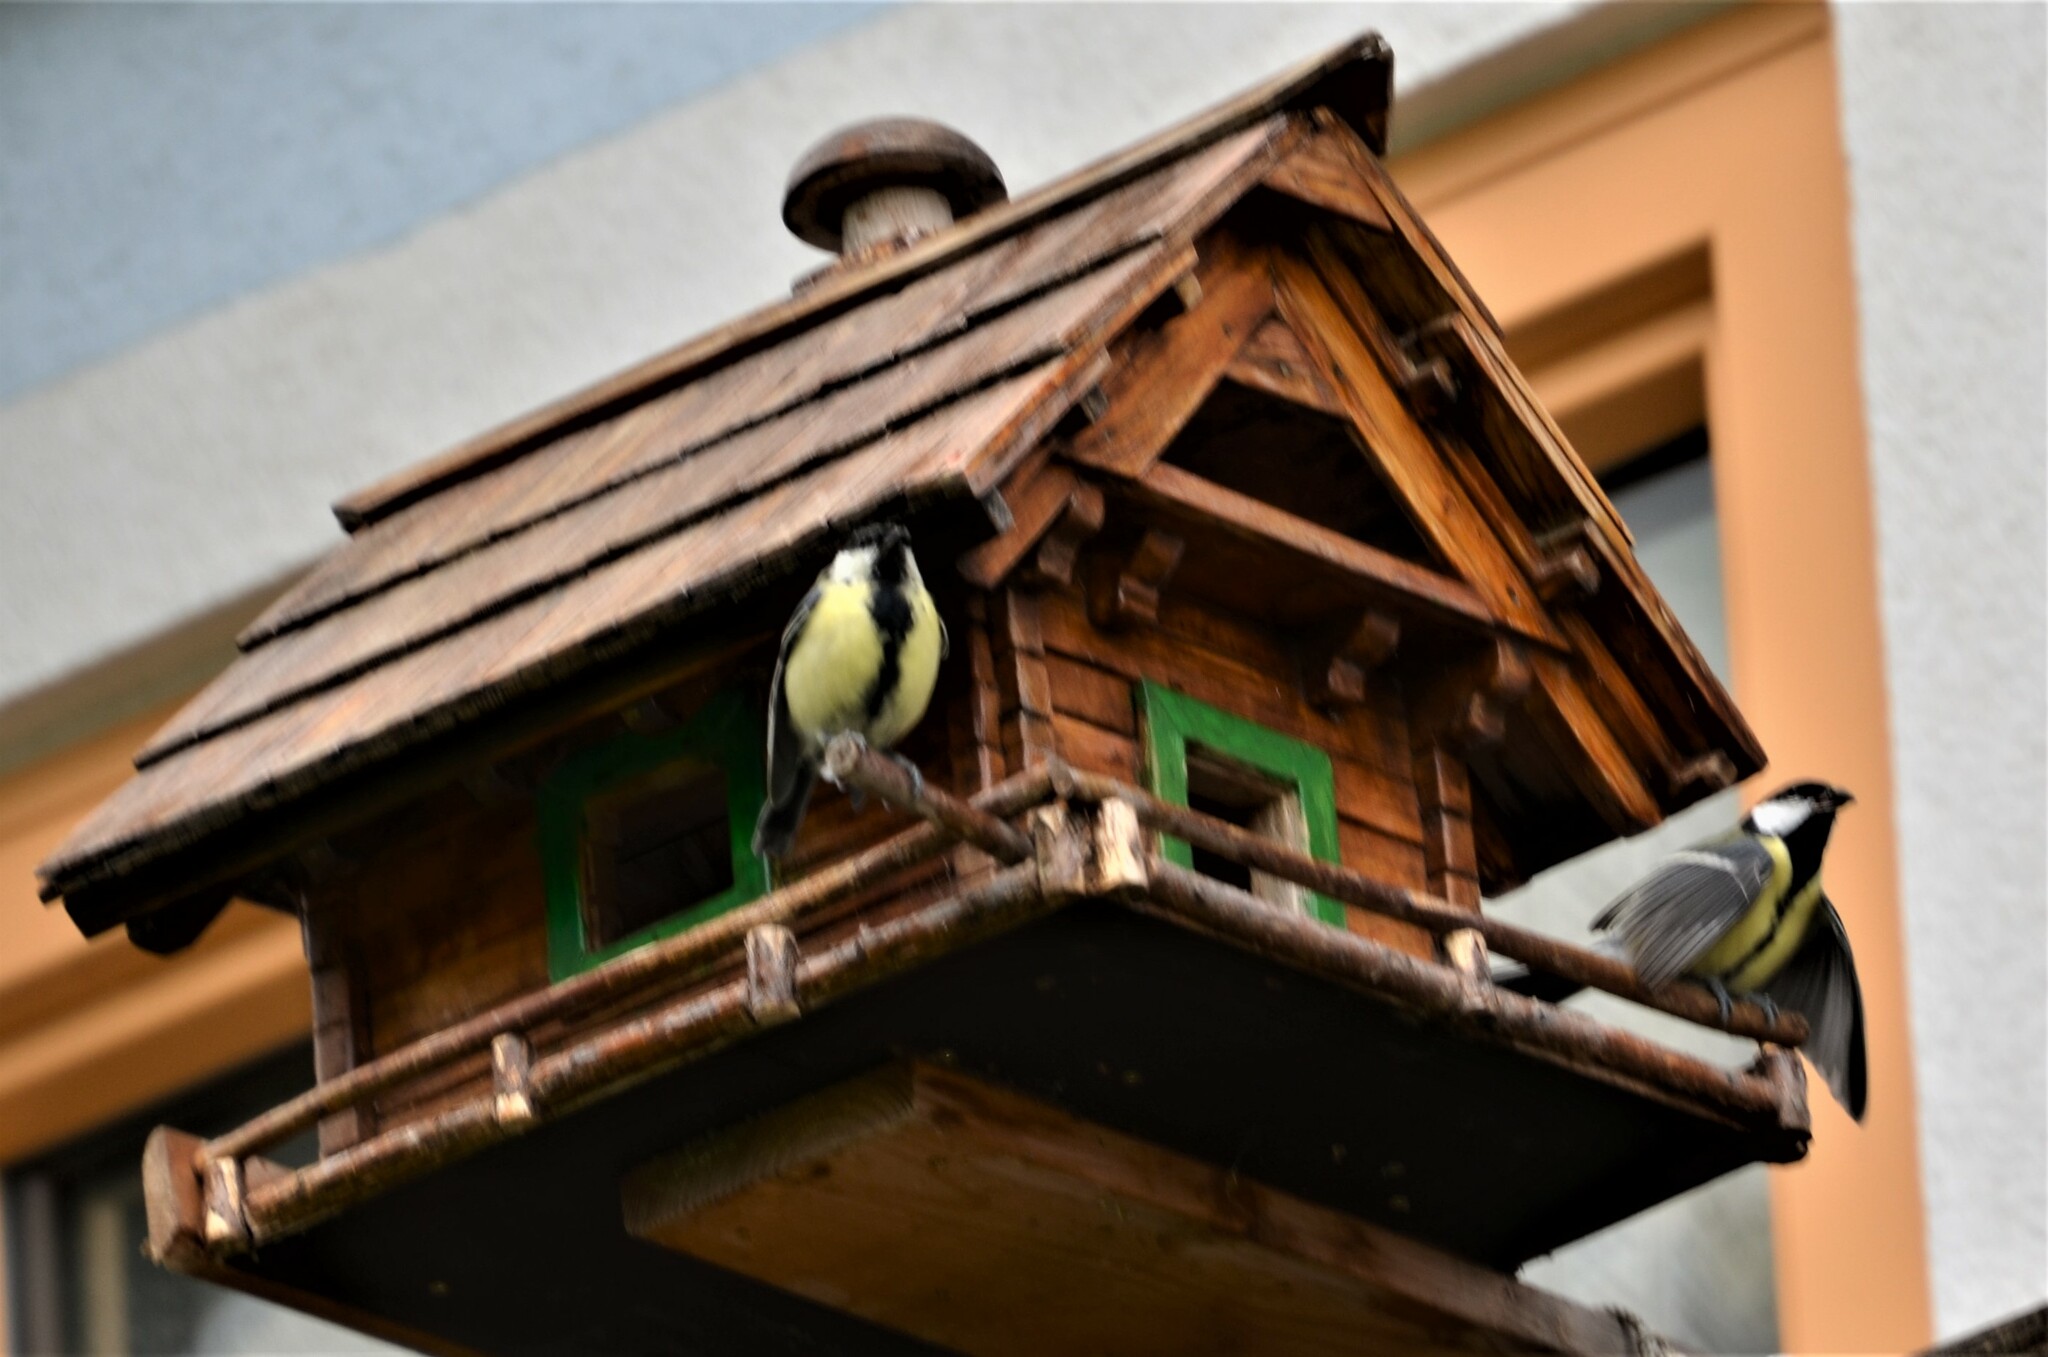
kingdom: Animalia
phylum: Chordata
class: Aves
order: Passeriformes
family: Paridae
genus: Parus
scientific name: Parus major
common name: Great tit
